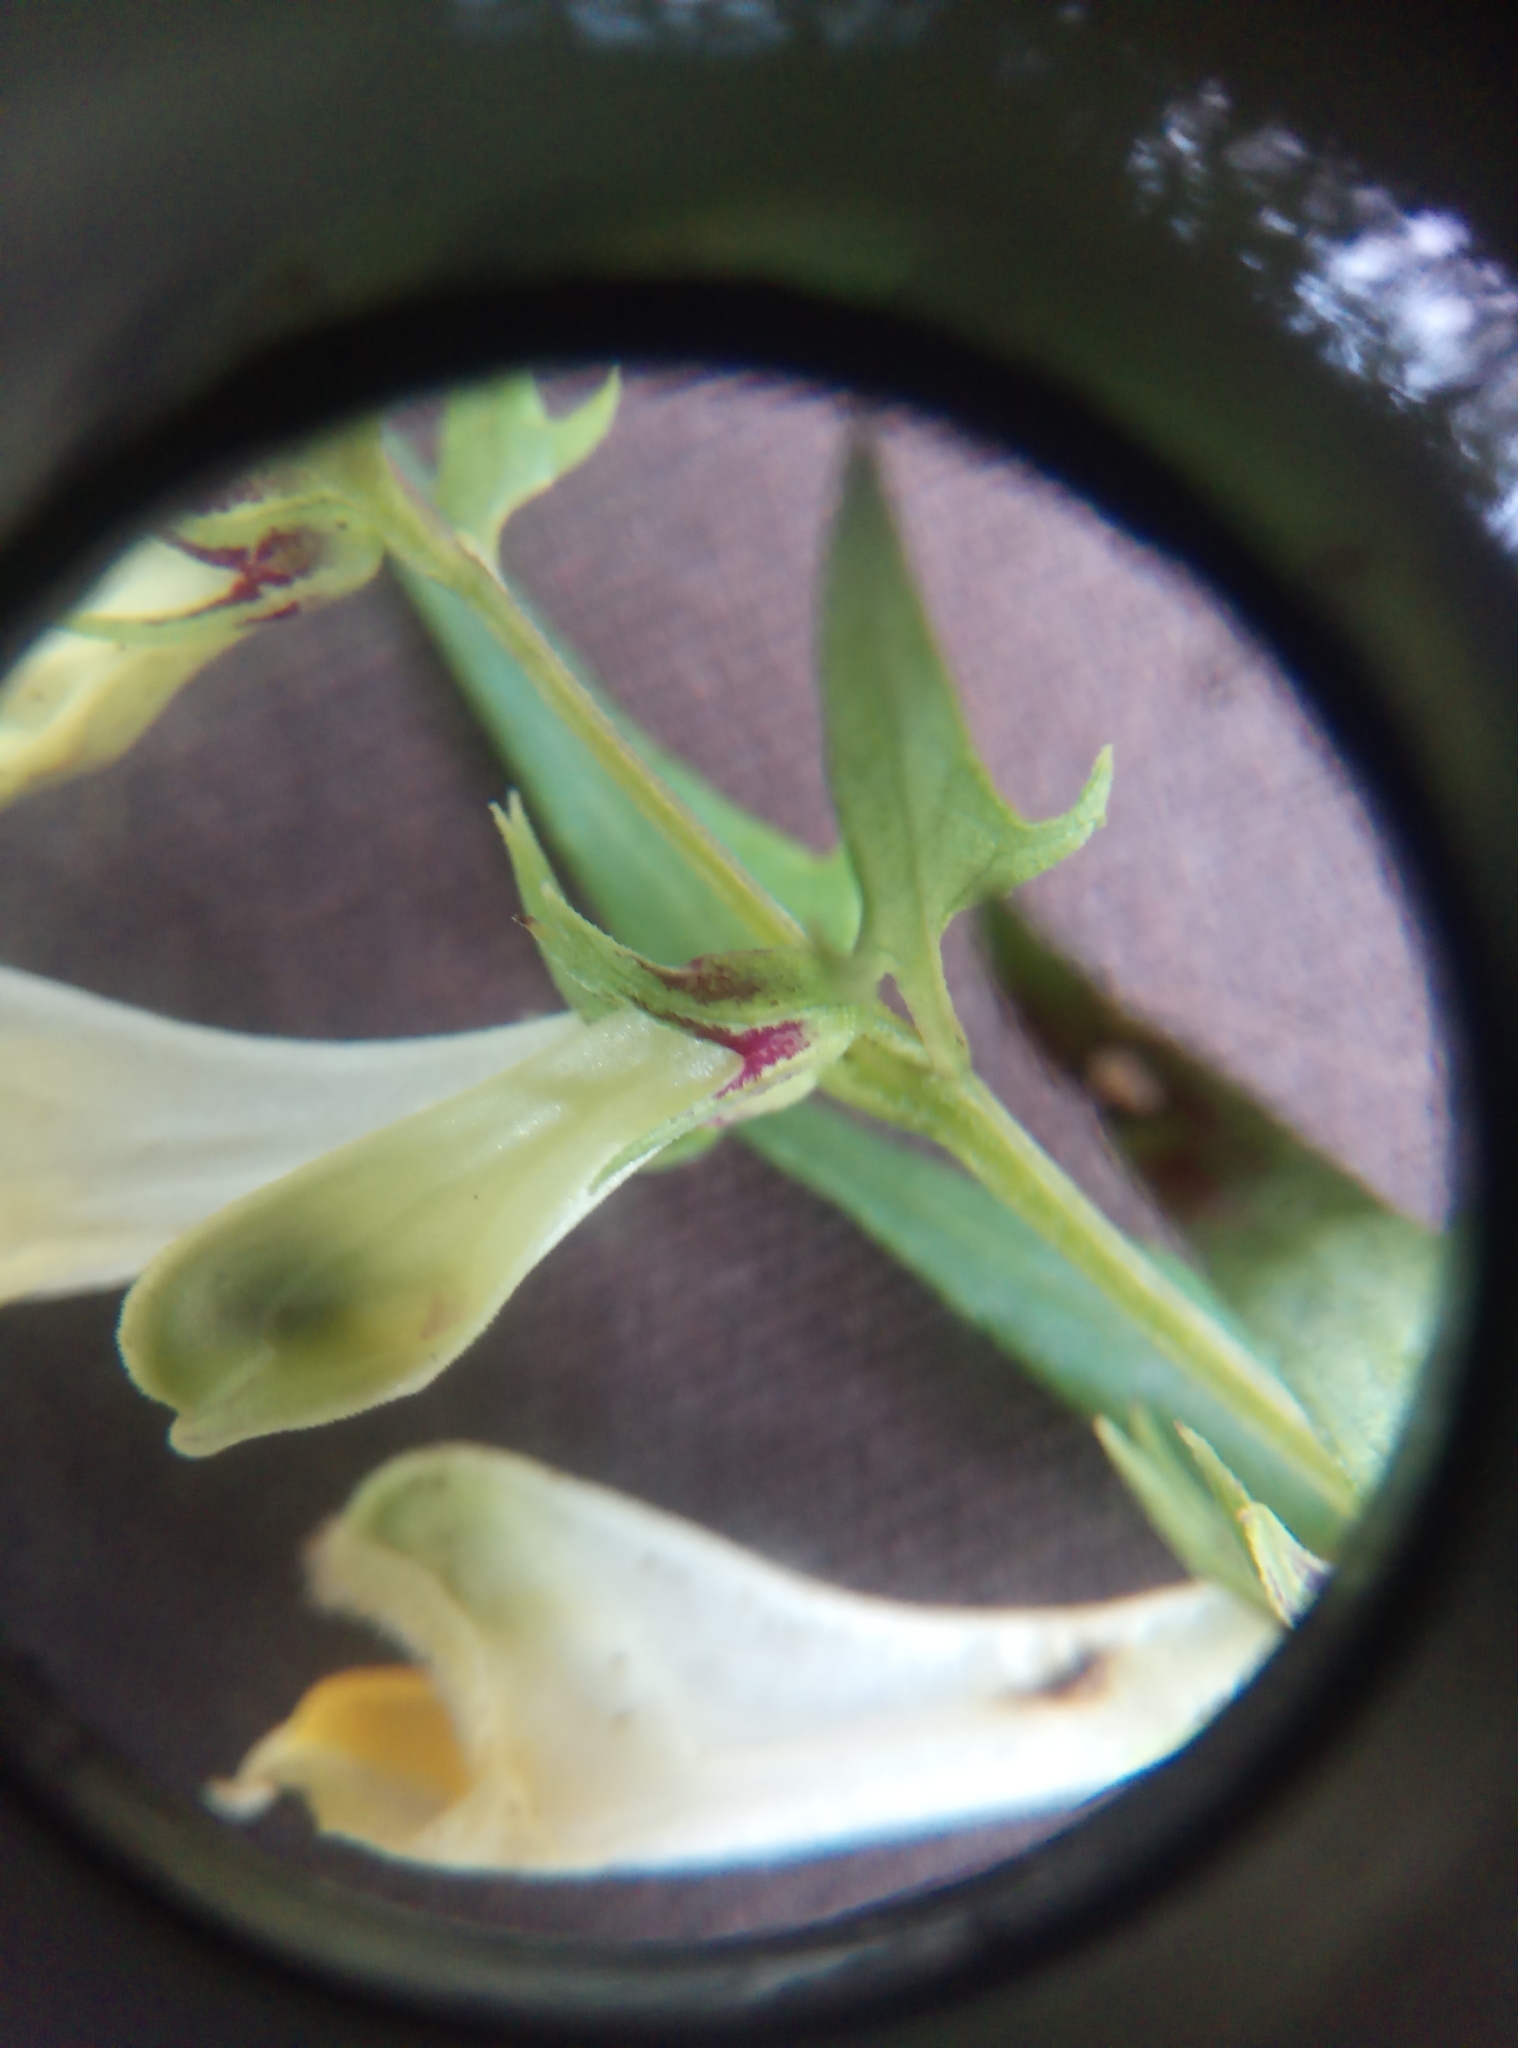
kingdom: Plantae
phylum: Tracheophyta
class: Magnoliopsida
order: Lamiales
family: Orobanchaceae
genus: Melampyrum
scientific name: Melampyrum pratense
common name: Common cow-wheat
